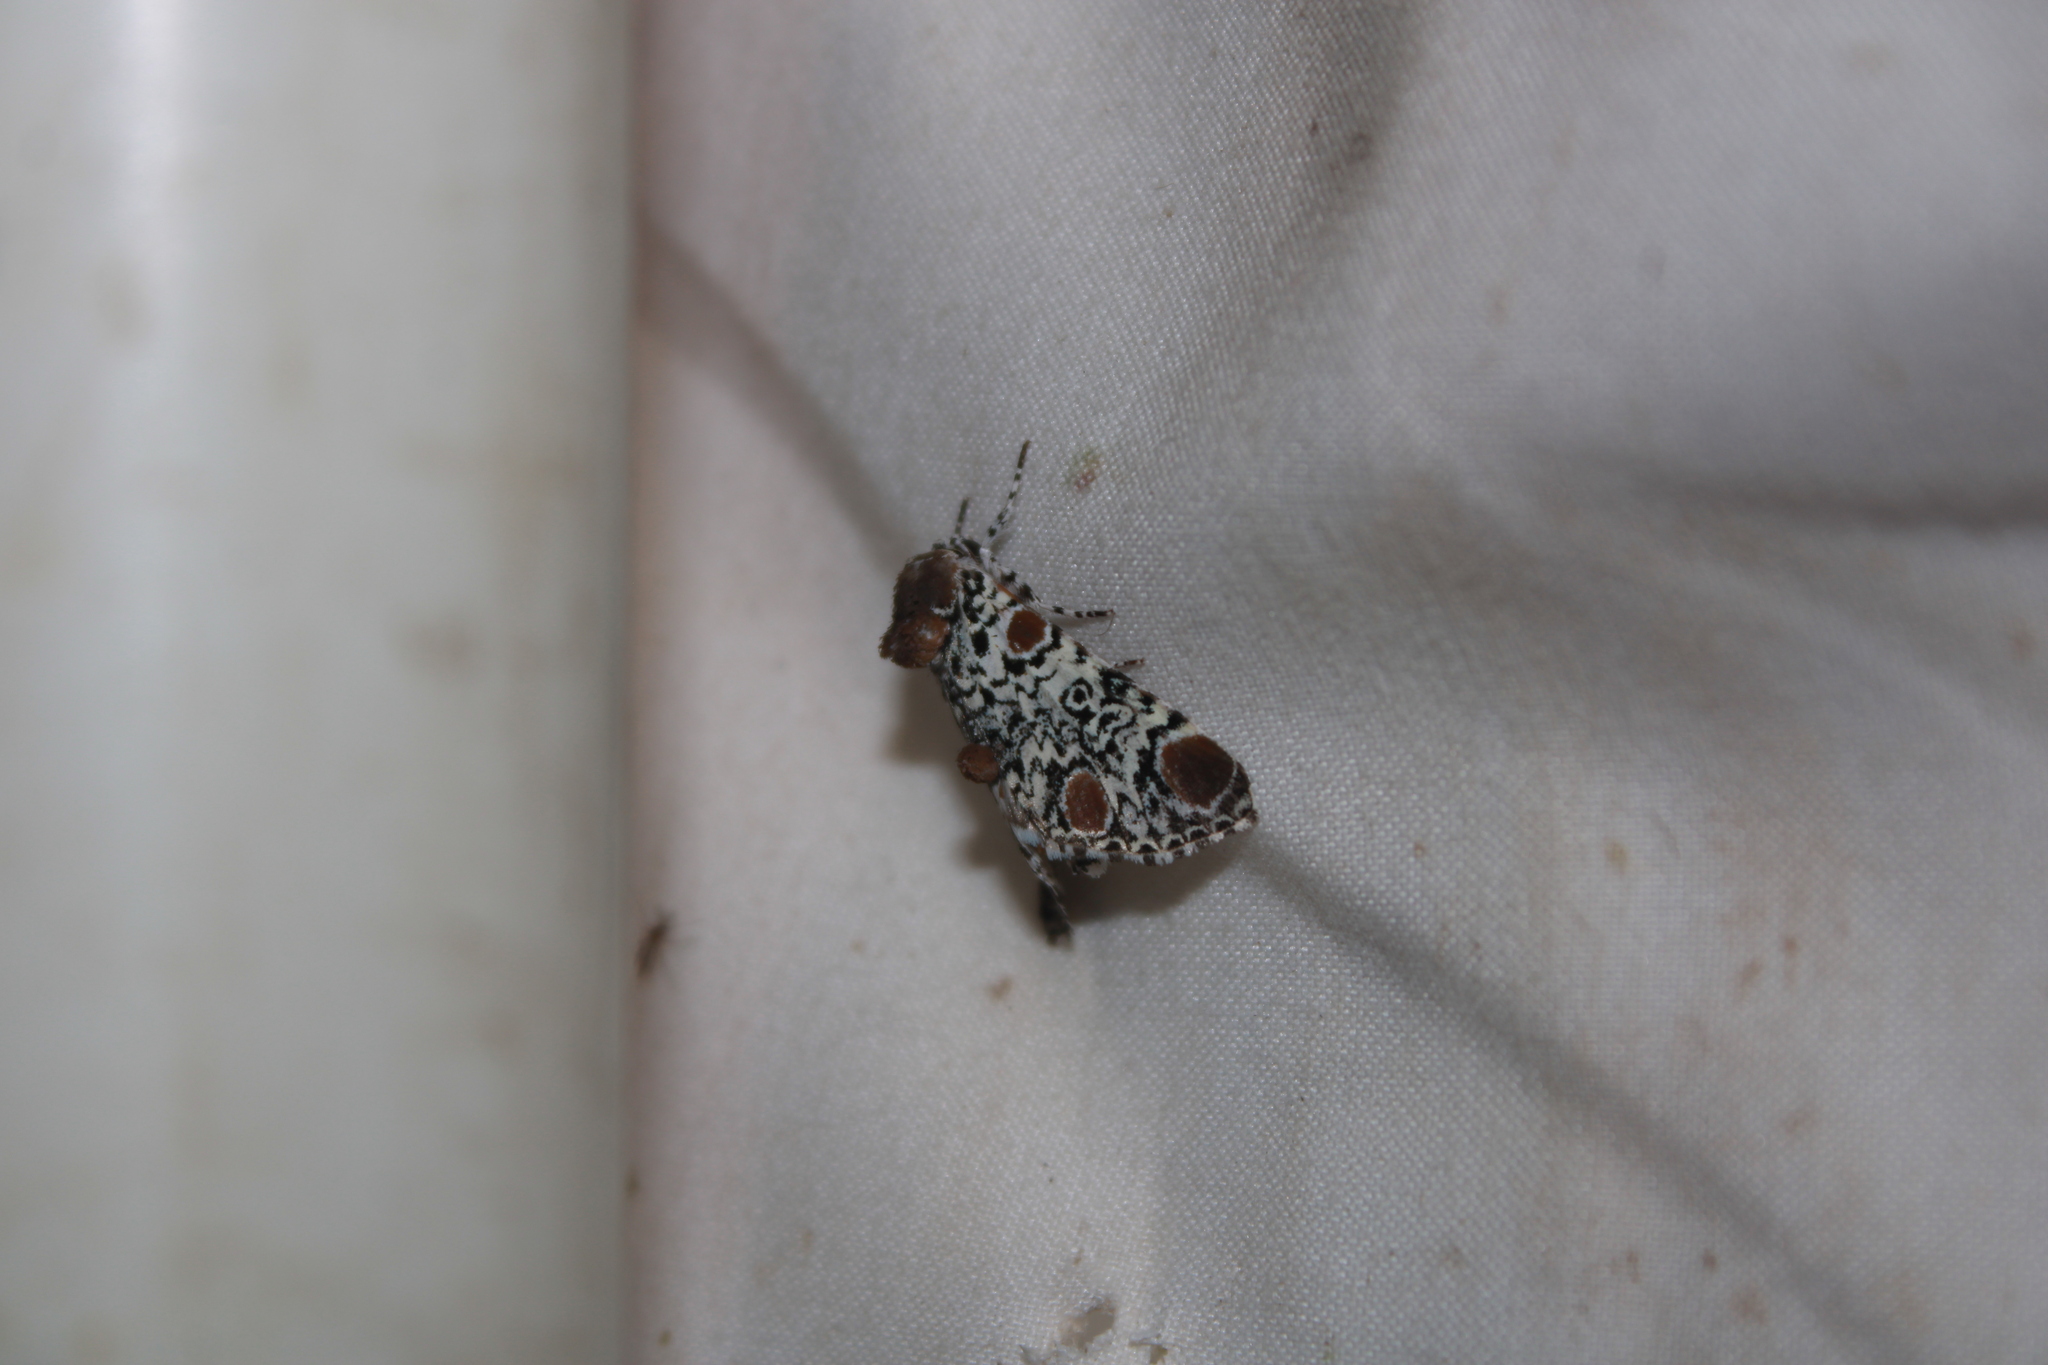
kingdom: Animalia
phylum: Arthropoda
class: Insecta
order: Lepidoptera
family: Noctuidae
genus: Harrisimemna
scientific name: Harrisimemna trisignata
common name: Harris threespot
